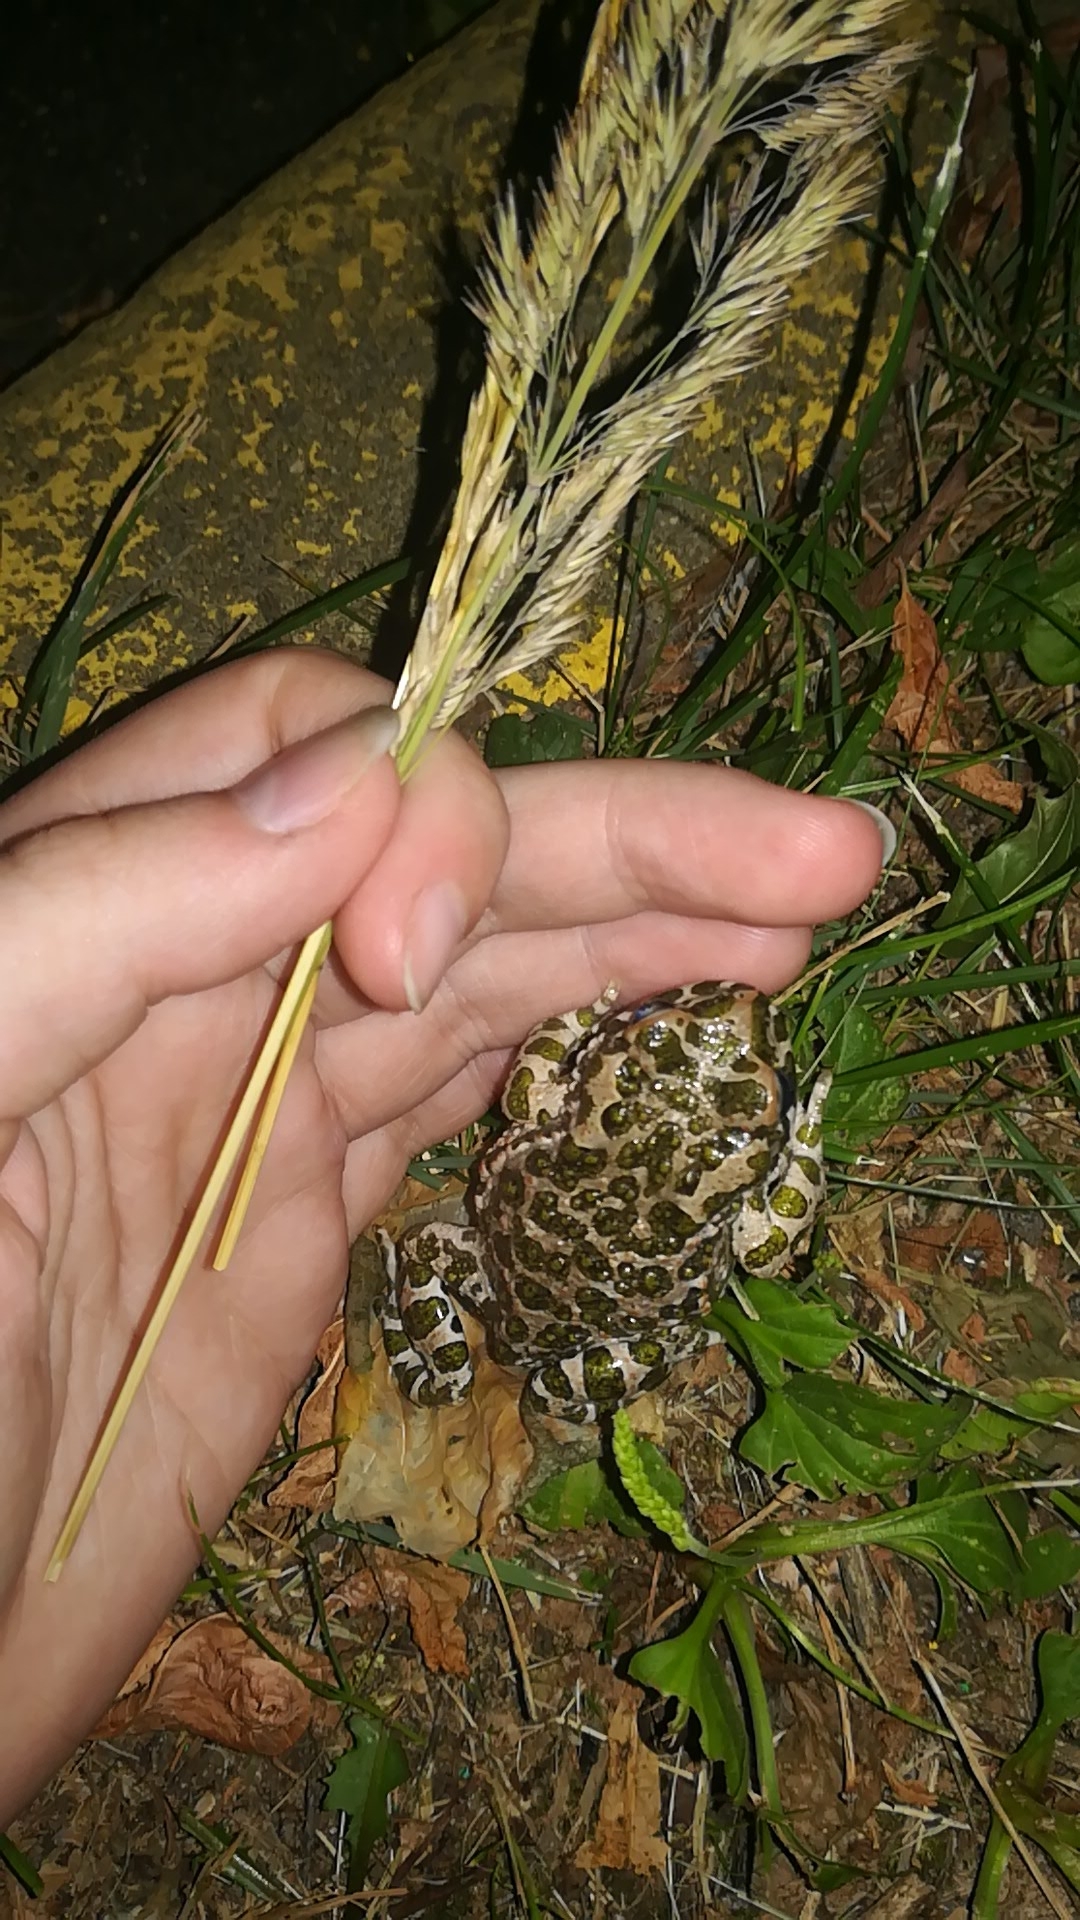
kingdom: Animalia
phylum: Chordata
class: Amphibia
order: Anura
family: Bufonidae
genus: Bufotes
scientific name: Bufotes viridis
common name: European green toad
